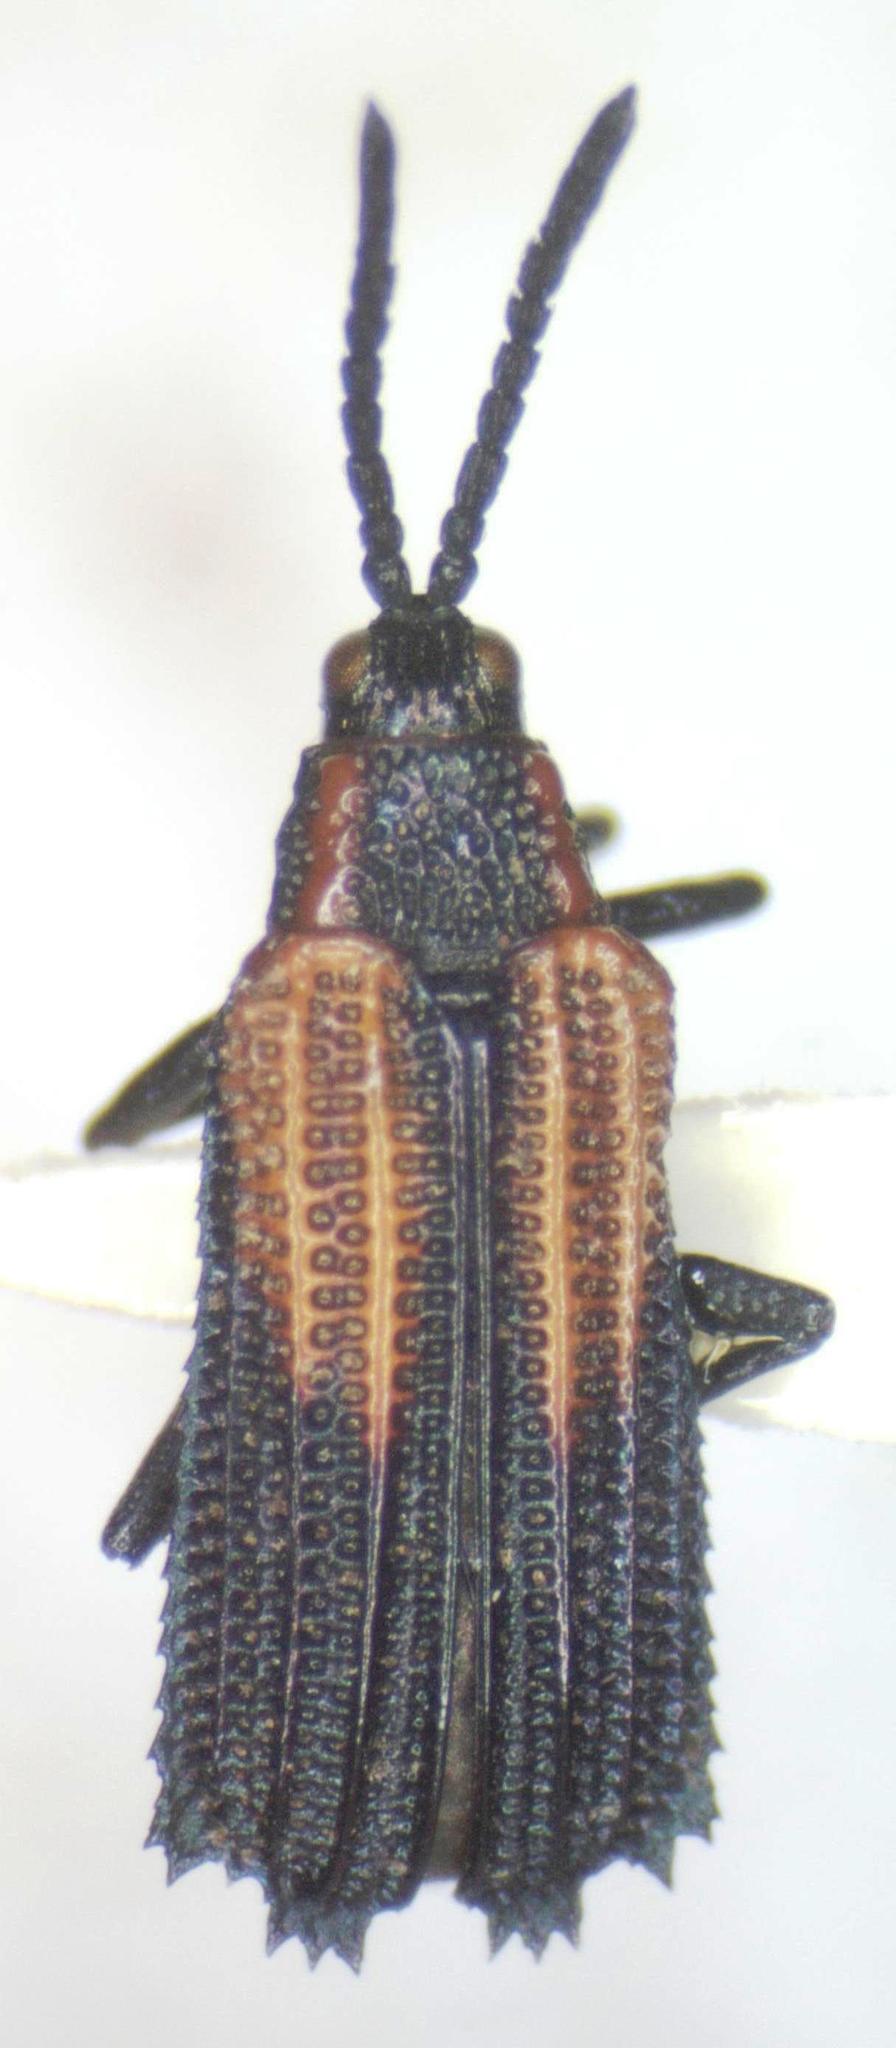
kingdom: Animalia
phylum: Arthropoda
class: Insecta
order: Coleoptera
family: Chrysomelidae
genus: Pentispa
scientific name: Pentispa clarkella
